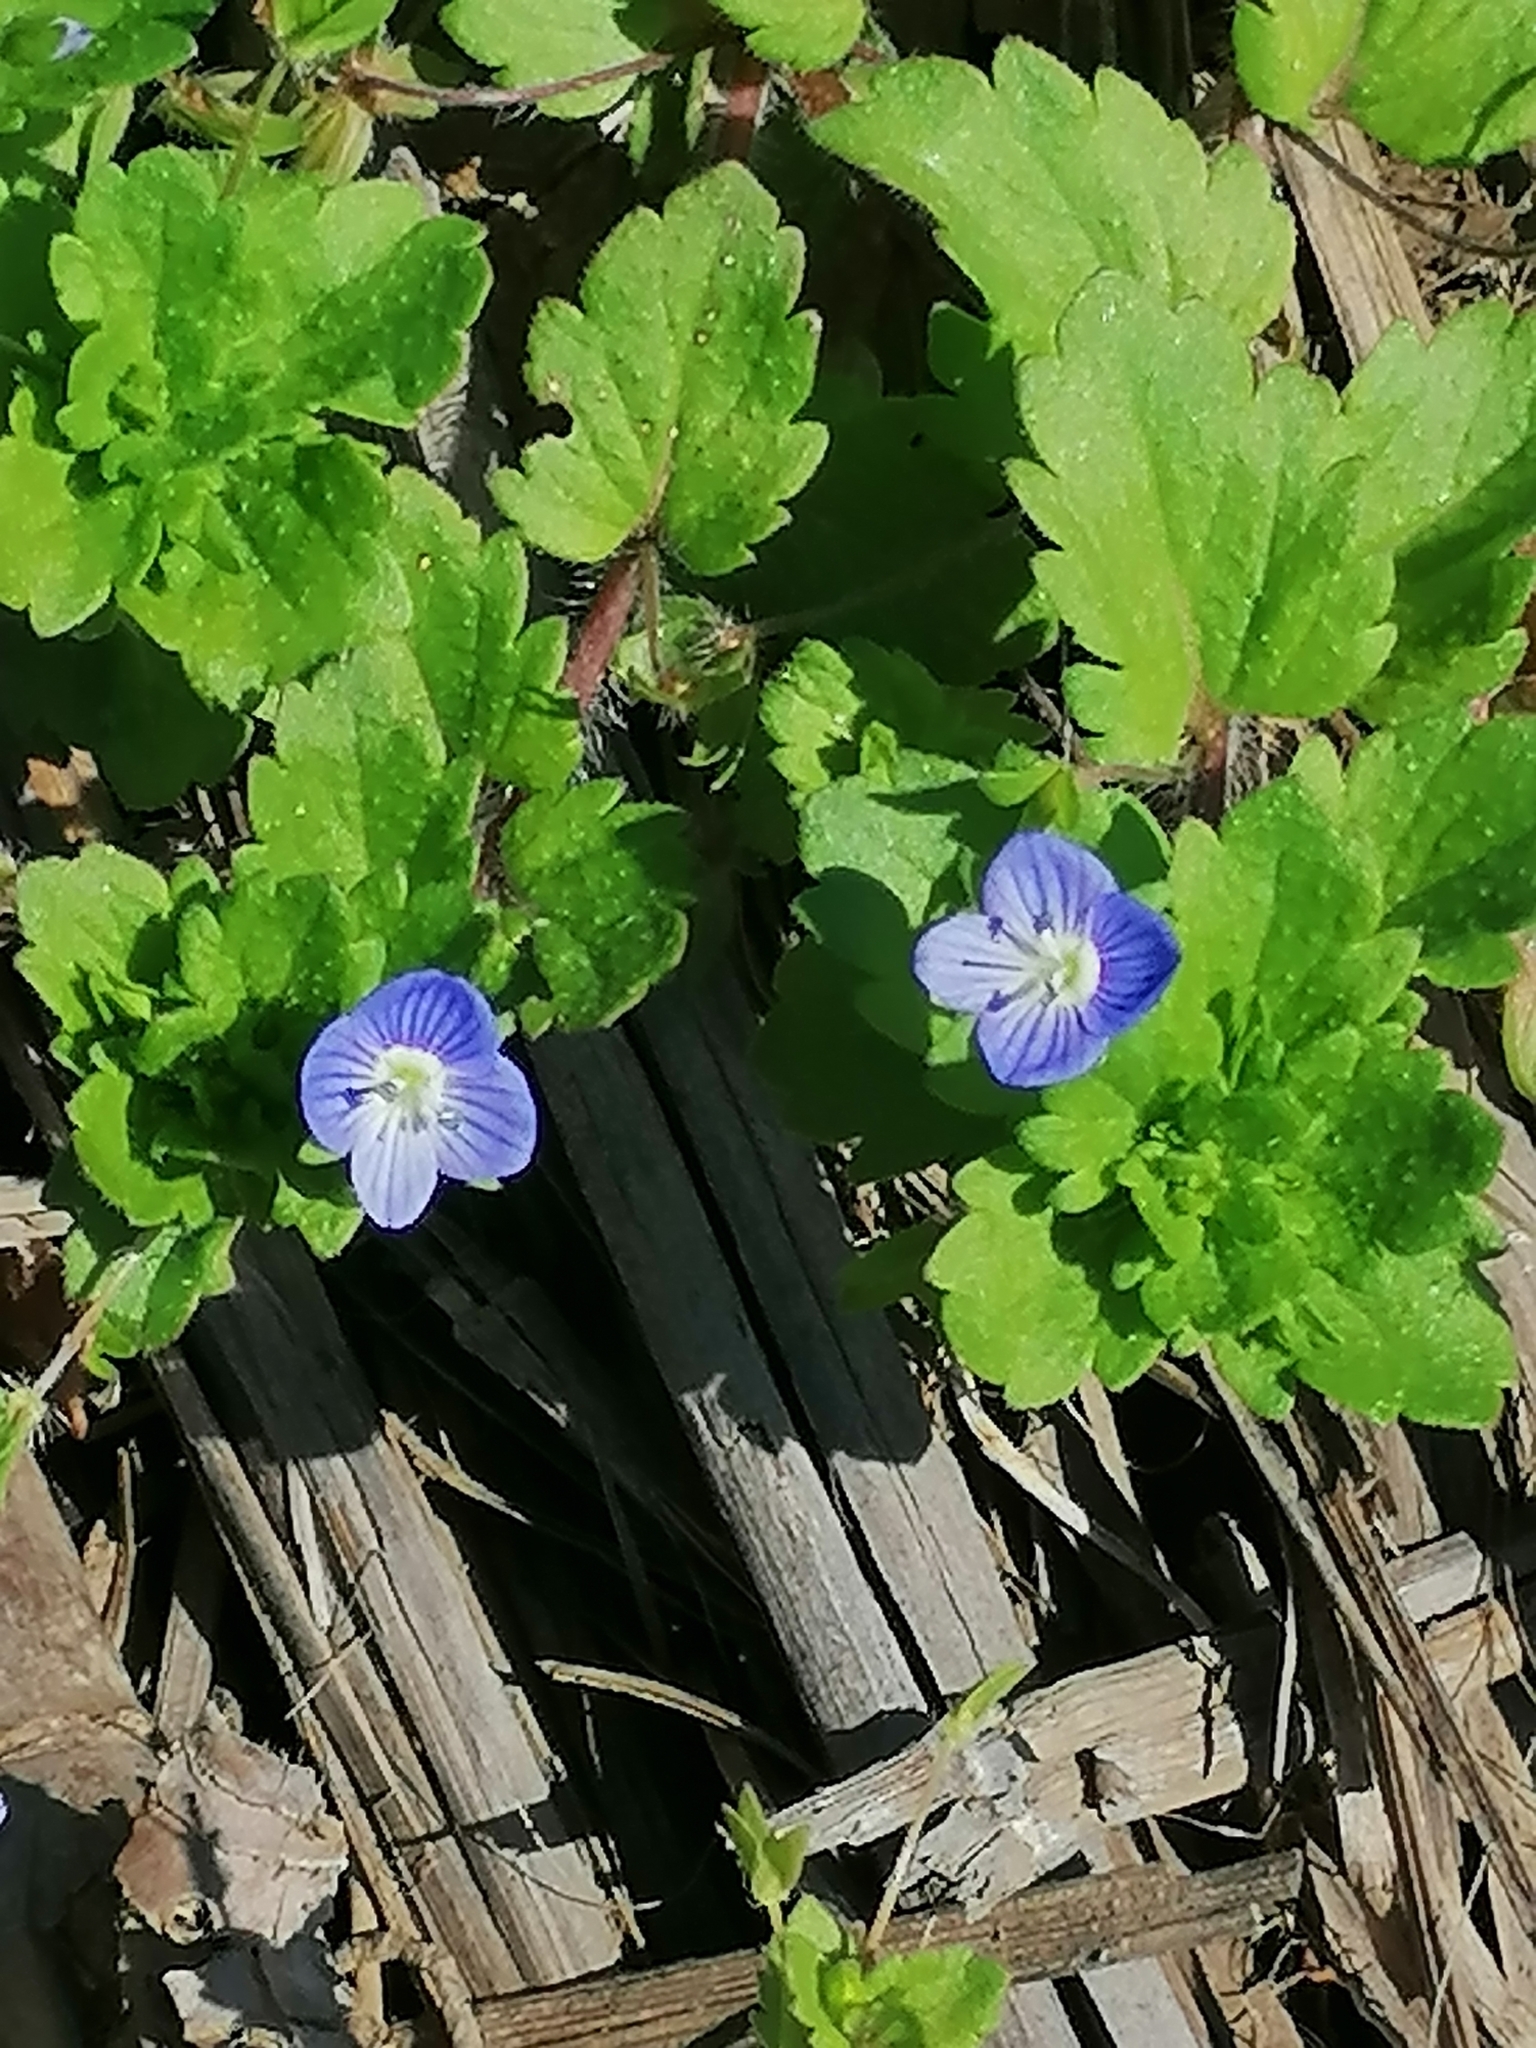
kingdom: Plantae
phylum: Tracheophyta
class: Magnoliopsida
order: Lamiales
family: Plantaginaceae
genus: Veronica
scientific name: Veronica persica
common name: Common field-speedwell
